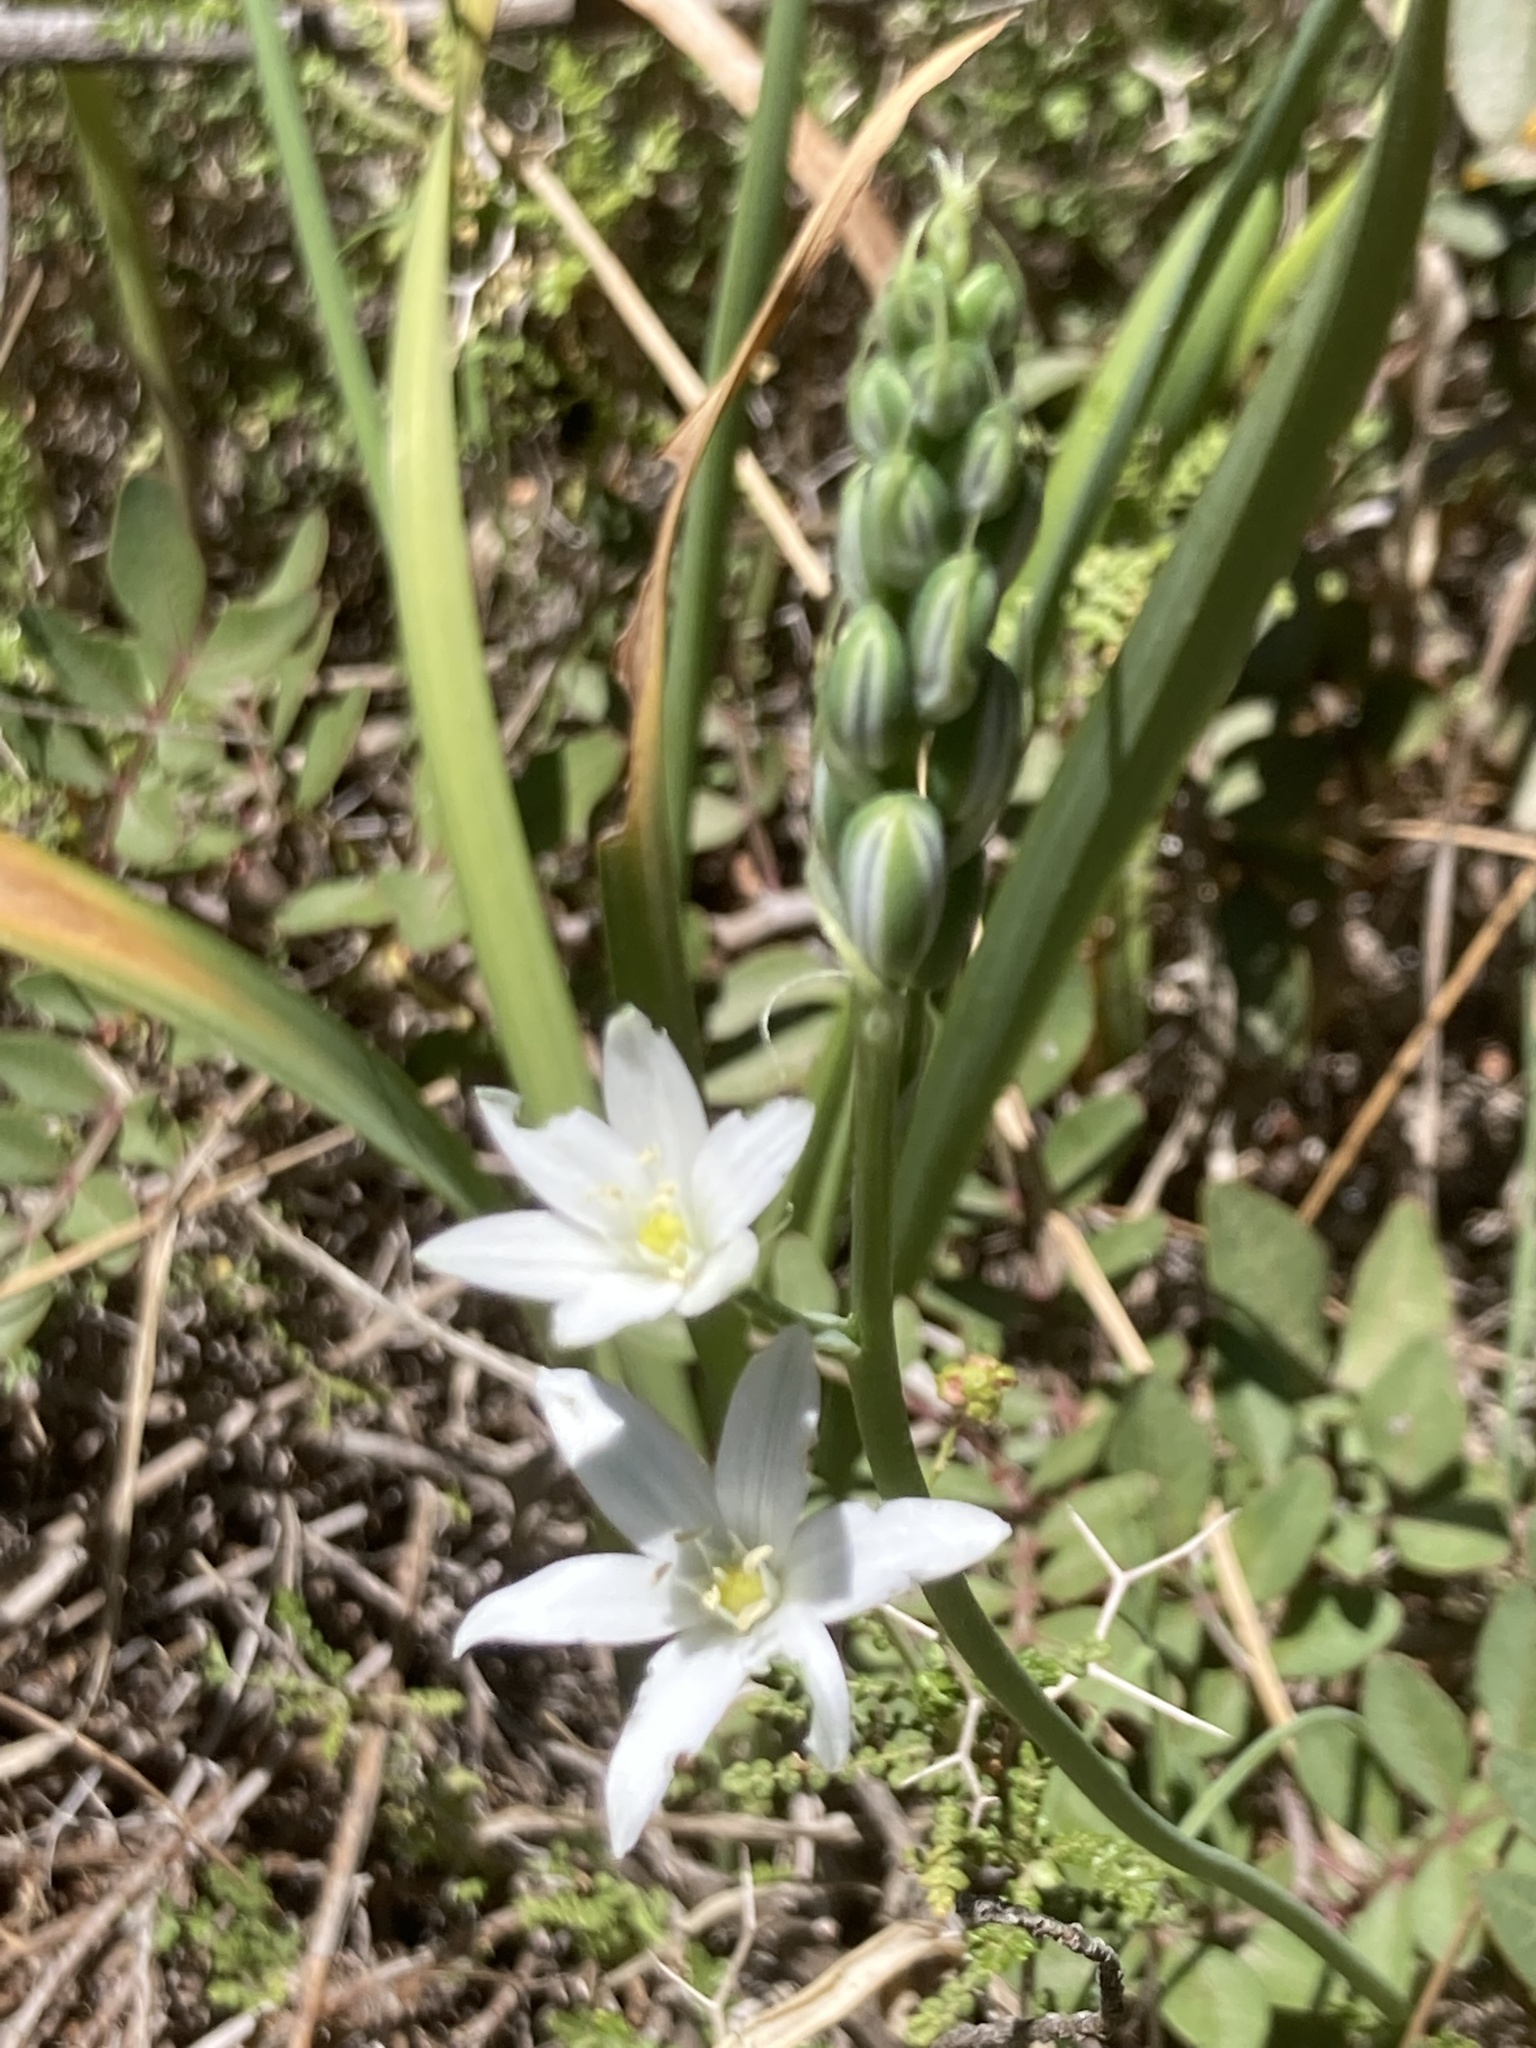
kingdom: Plantae
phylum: Tracheophyta
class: Liliopsida
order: Asparagales
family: Asparagaceae
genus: Ornithogalum
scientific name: Ornithogalum narbonense
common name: Bath-asparagus
